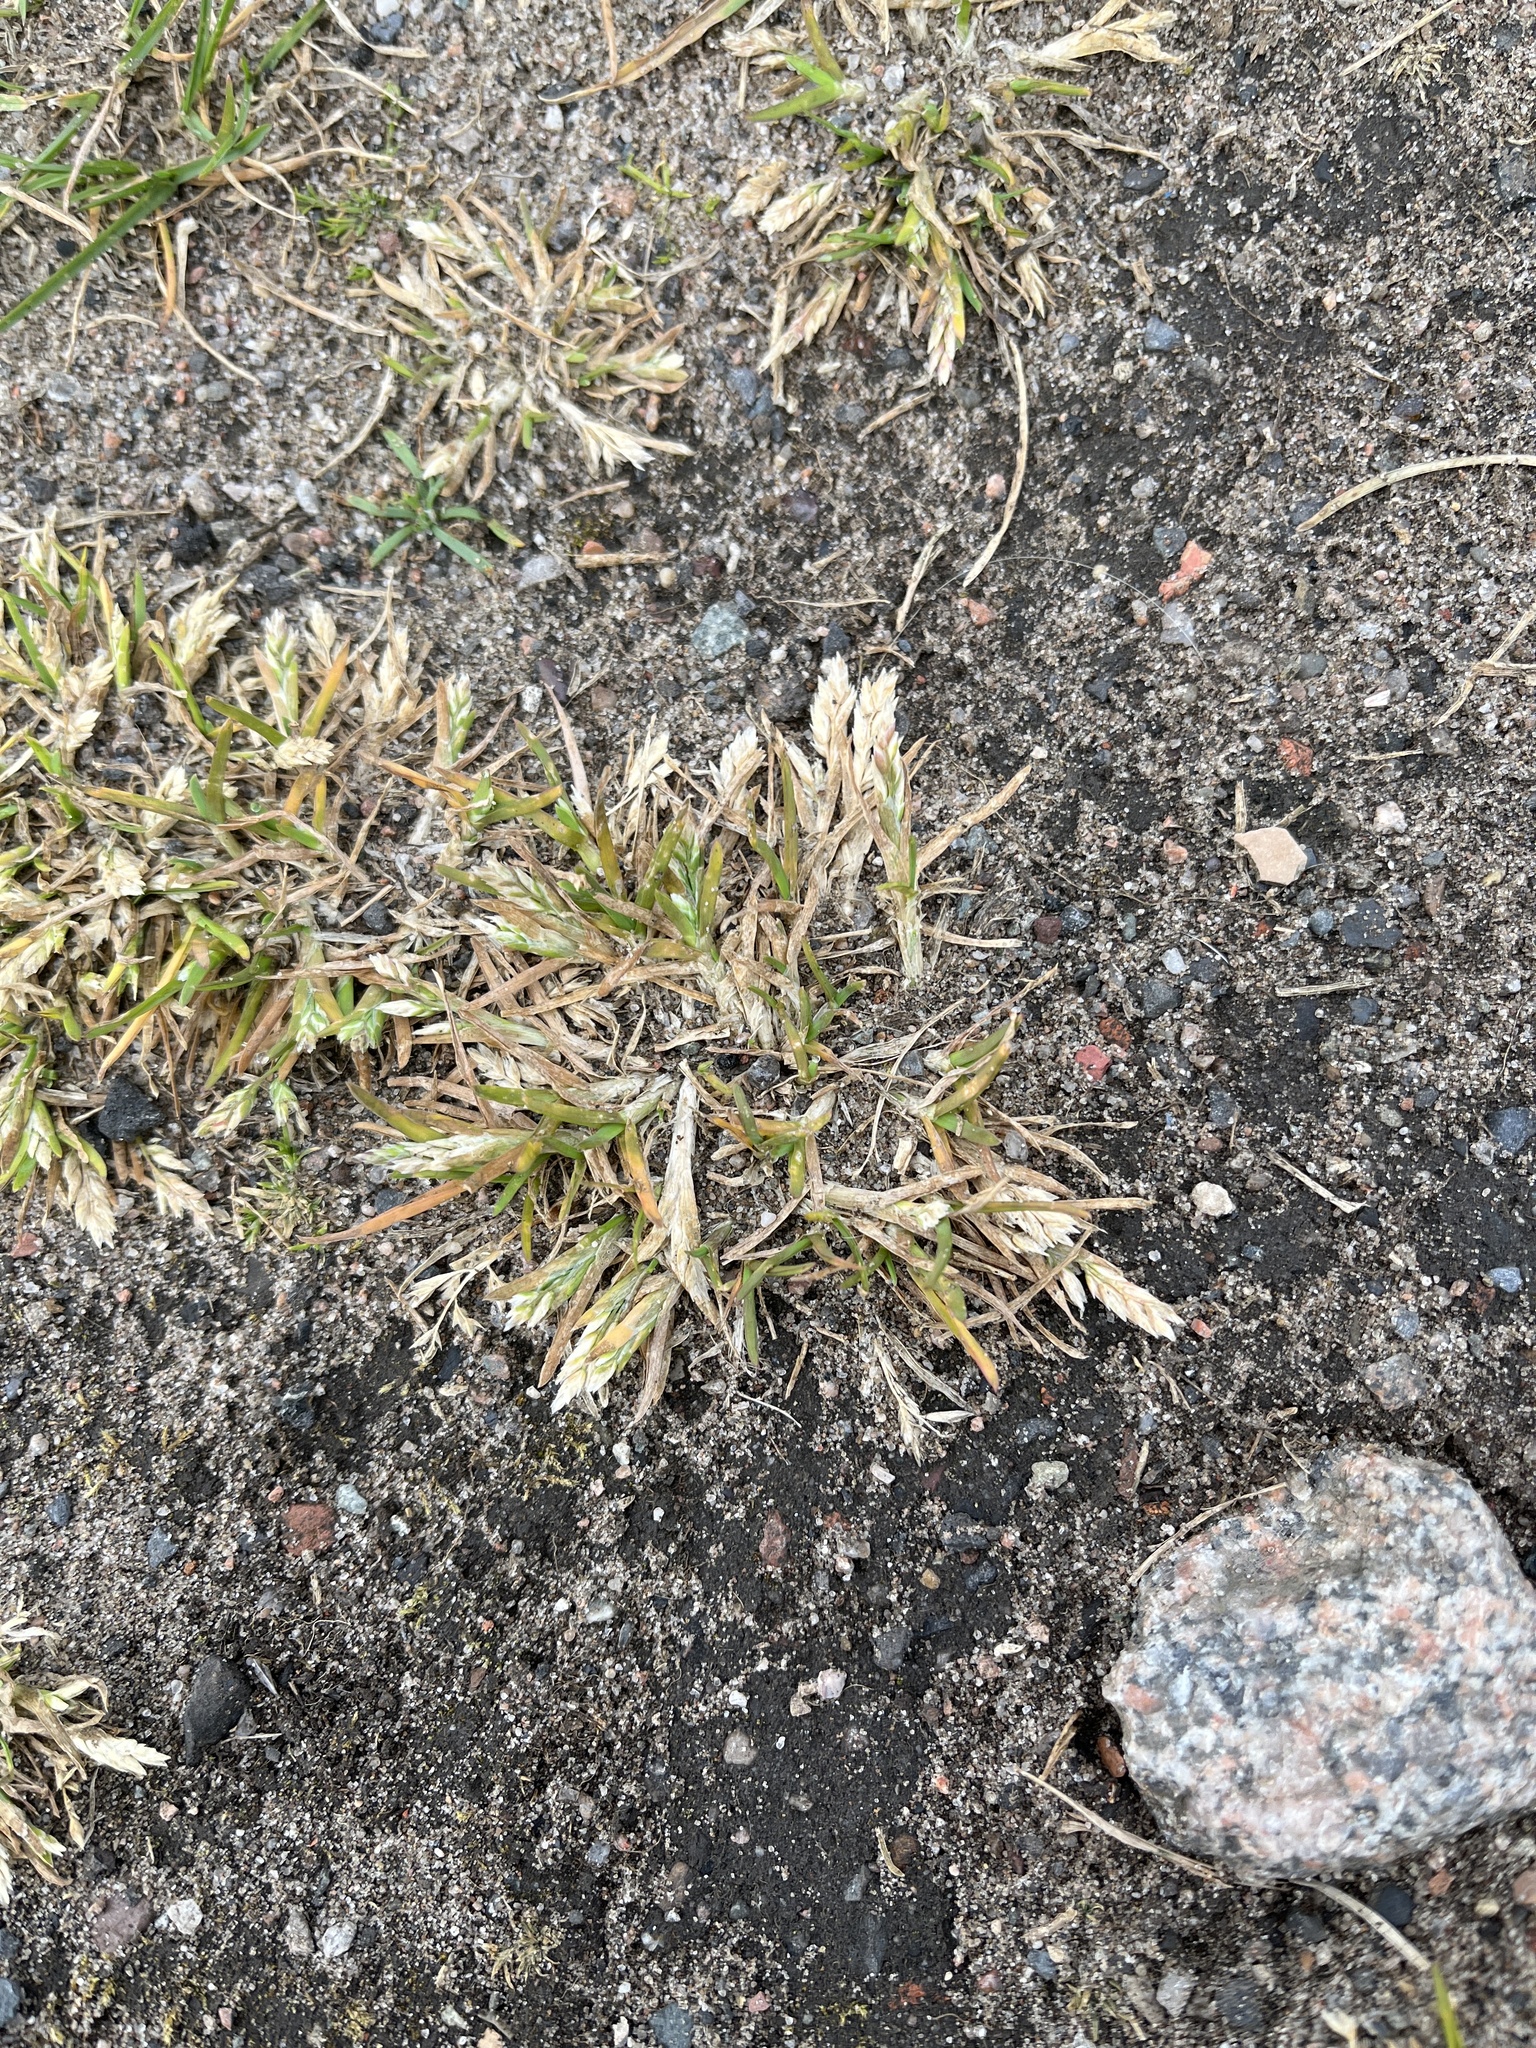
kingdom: Plantae
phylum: Tracheophyta
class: Liliopsida
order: Poales
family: Poaceae
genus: Poa
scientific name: Poa annua
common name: Annual bluegrass
